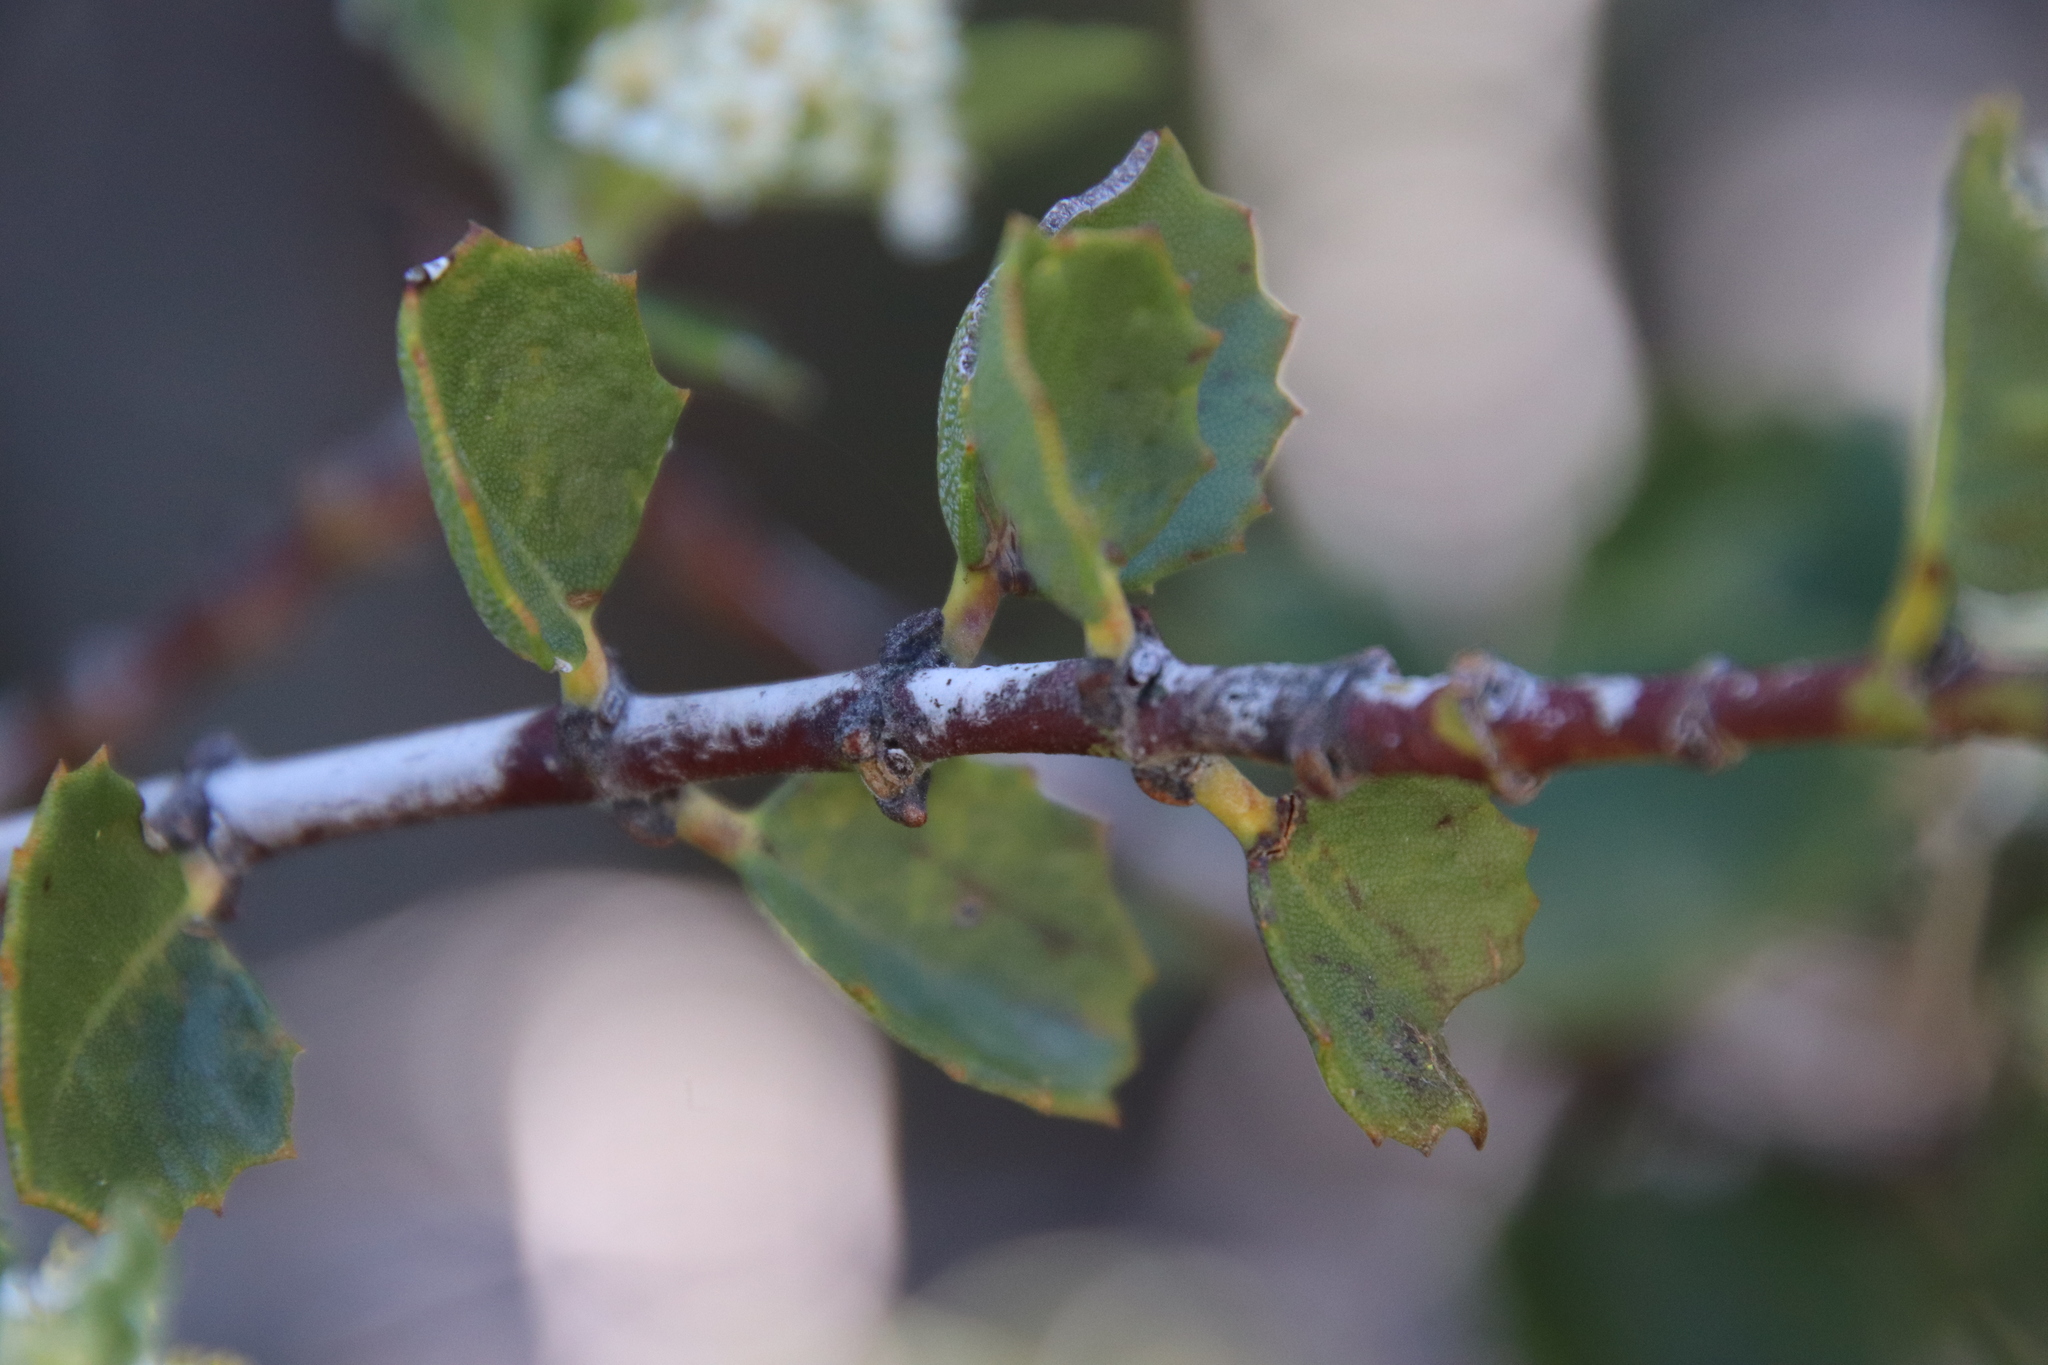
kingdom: Plantae
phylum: Tracheophyta
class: Magnoliopsida
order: Rosales
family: Rhamnaceae
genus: Ceanothus
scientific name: Ceanothus perplexans
